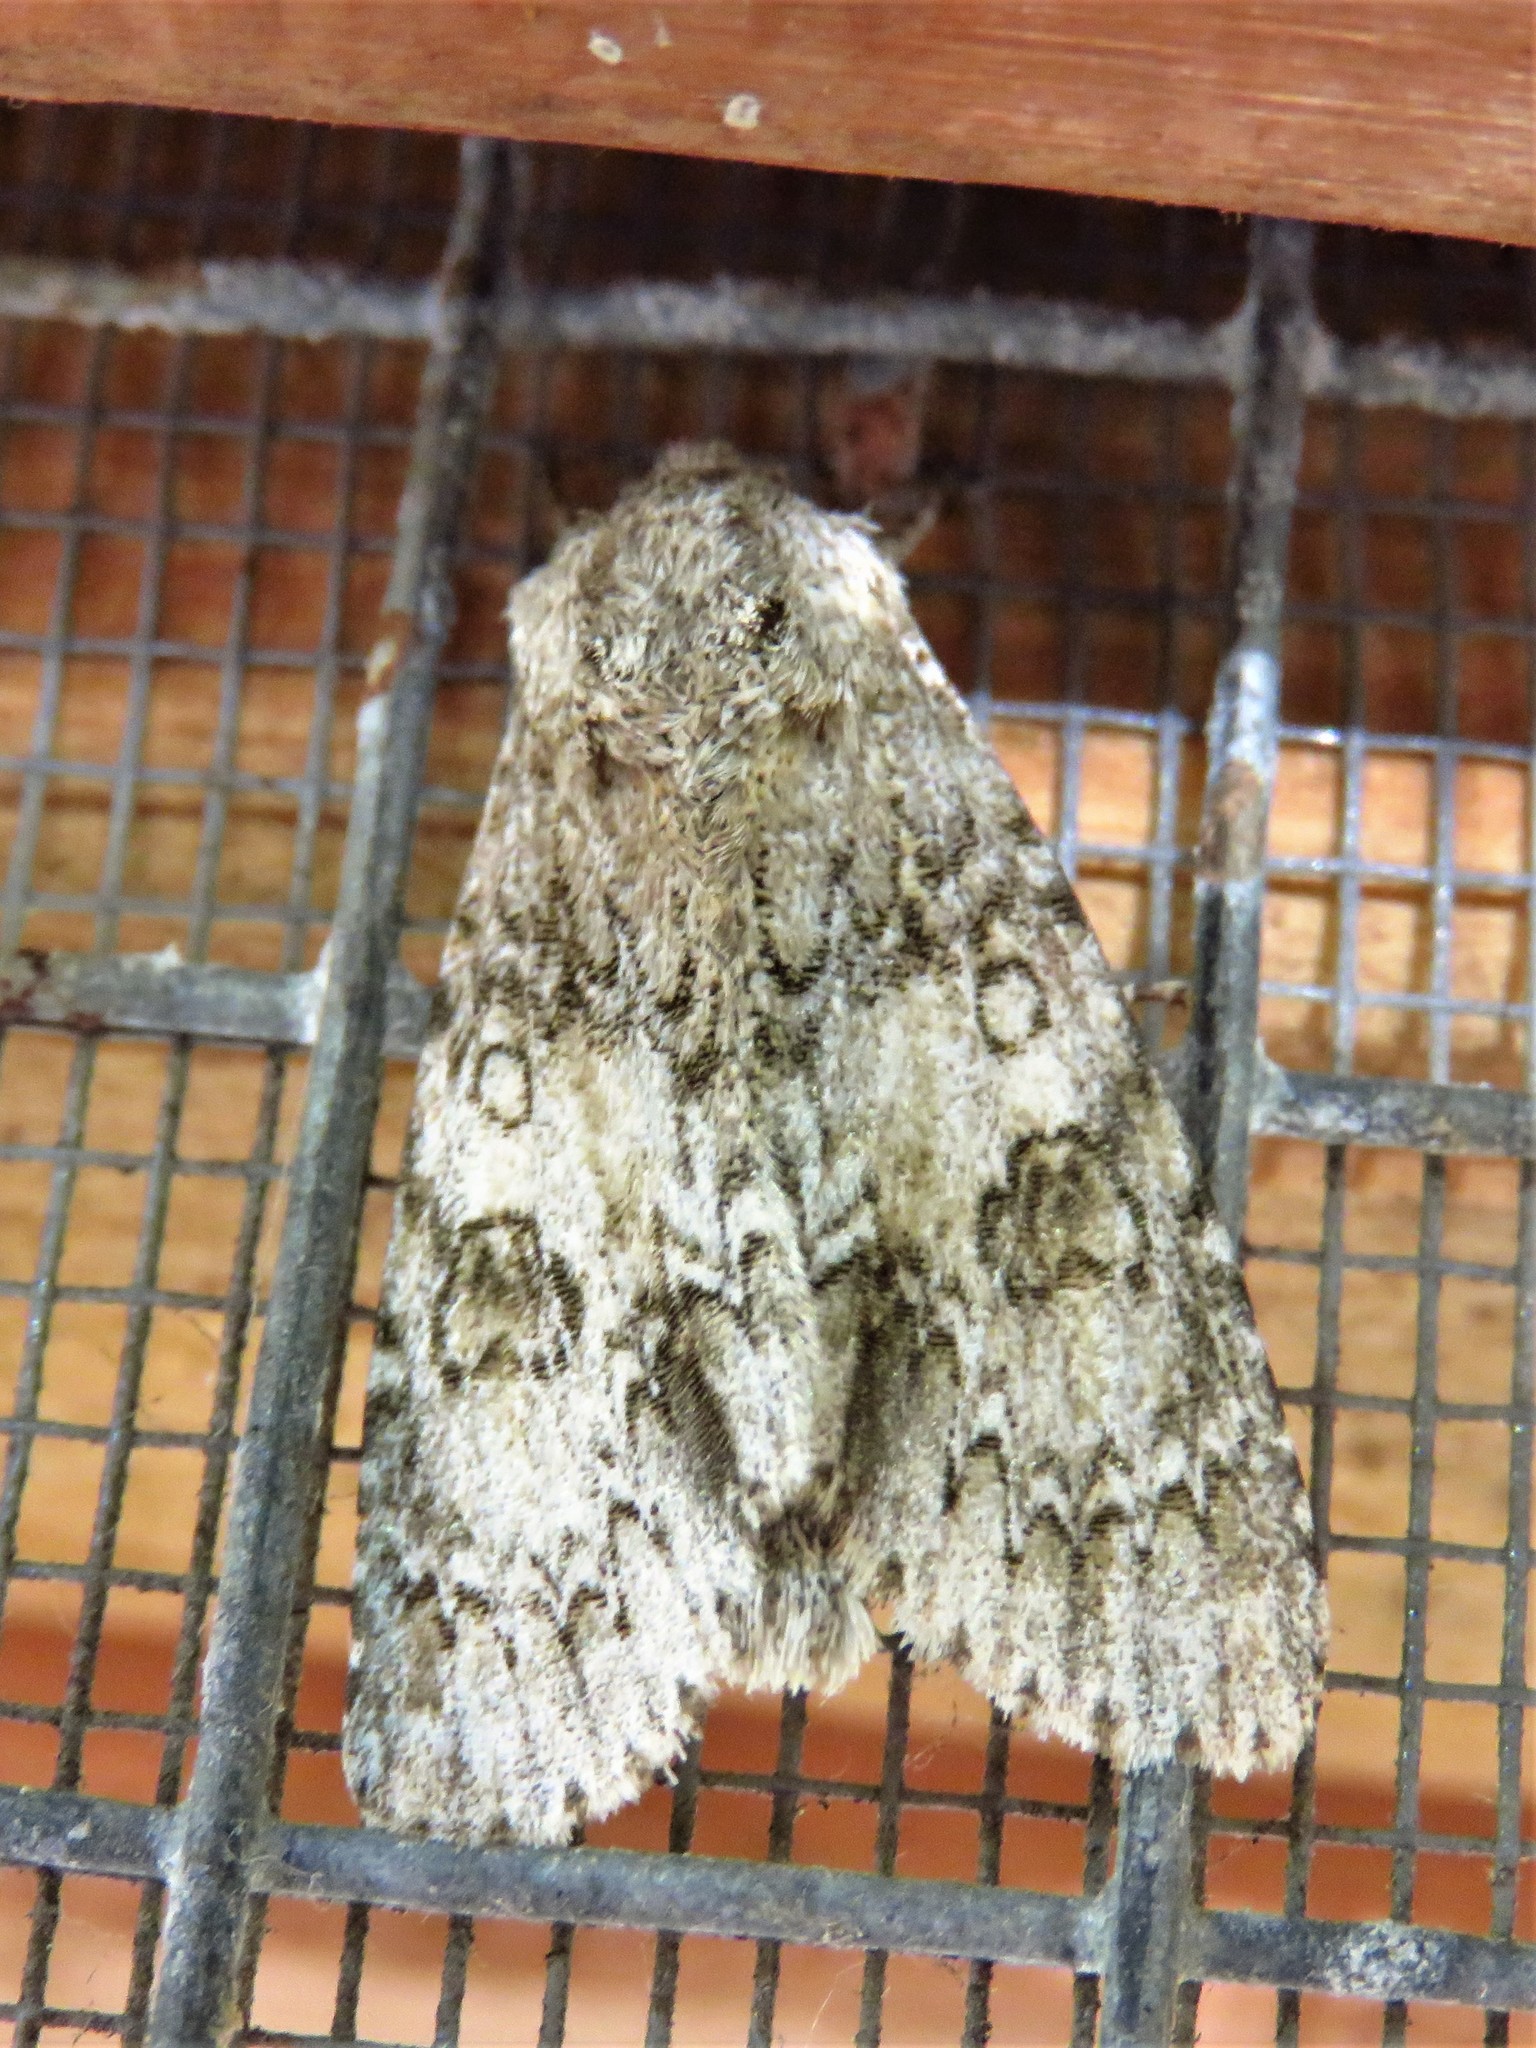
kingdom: Animalia
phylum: Arthropoda
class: Insecta
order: Lepidoptera
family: Noctuidae
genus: Acronicta
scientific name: Acronicta rubricoma
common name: Hackberry dagger
